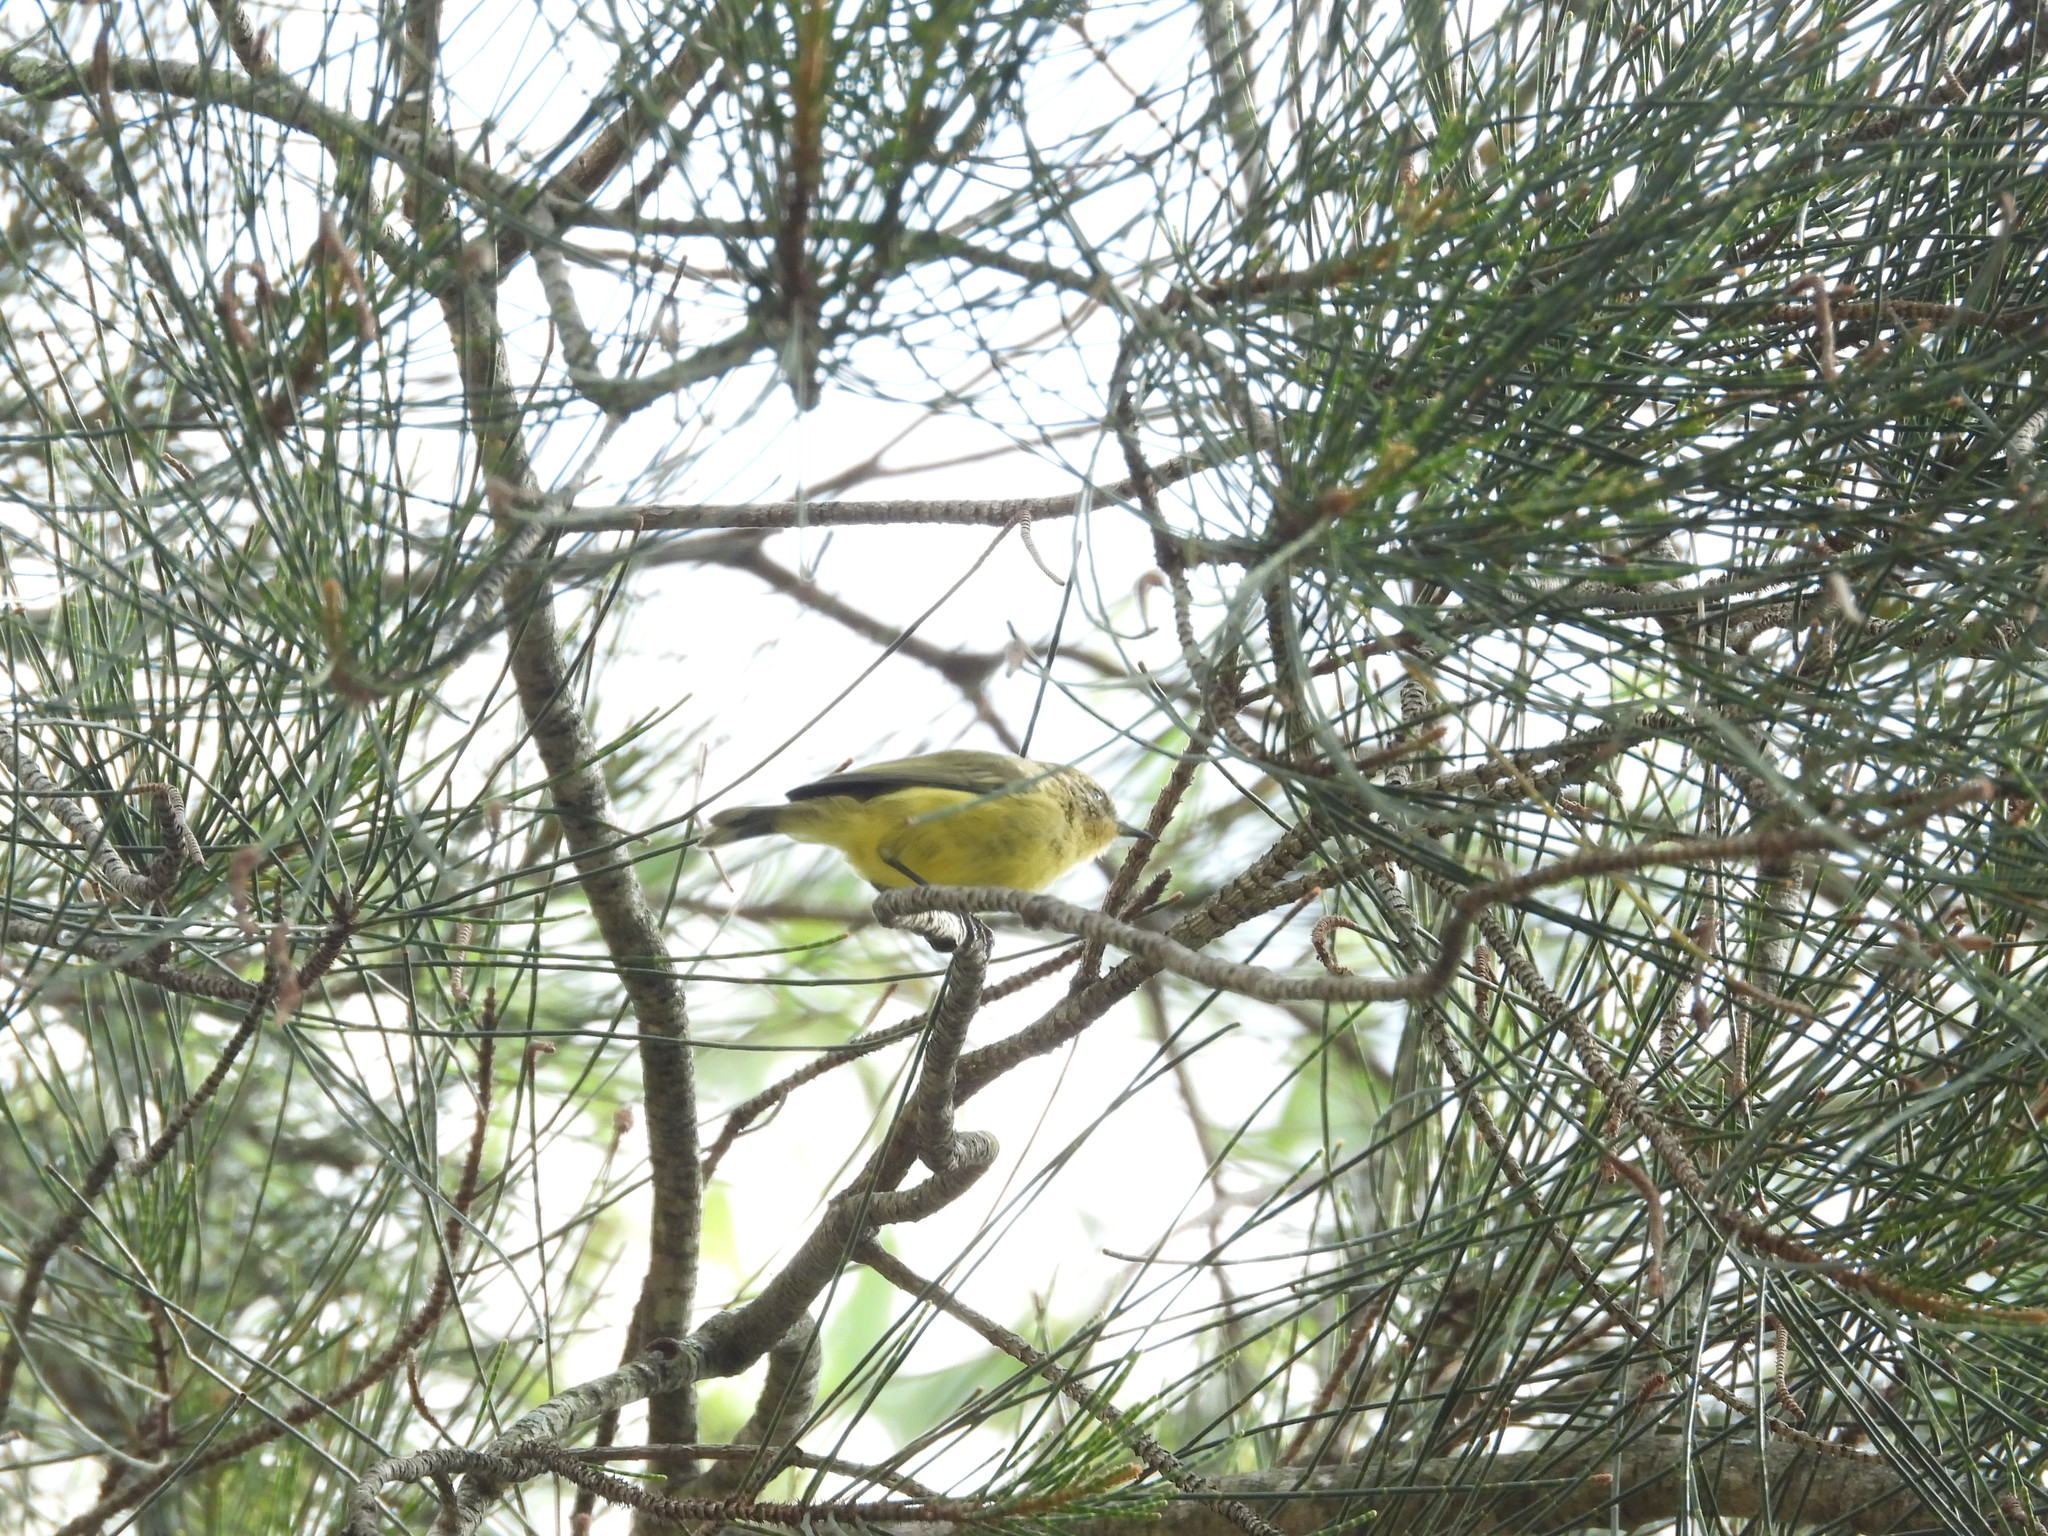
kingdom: Animalia
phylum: Chordata
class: Aves
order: Passeriformes
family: Acanthizidae
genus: Acanthiza
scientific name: Acanthiza nana
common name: Yellow thornbill
